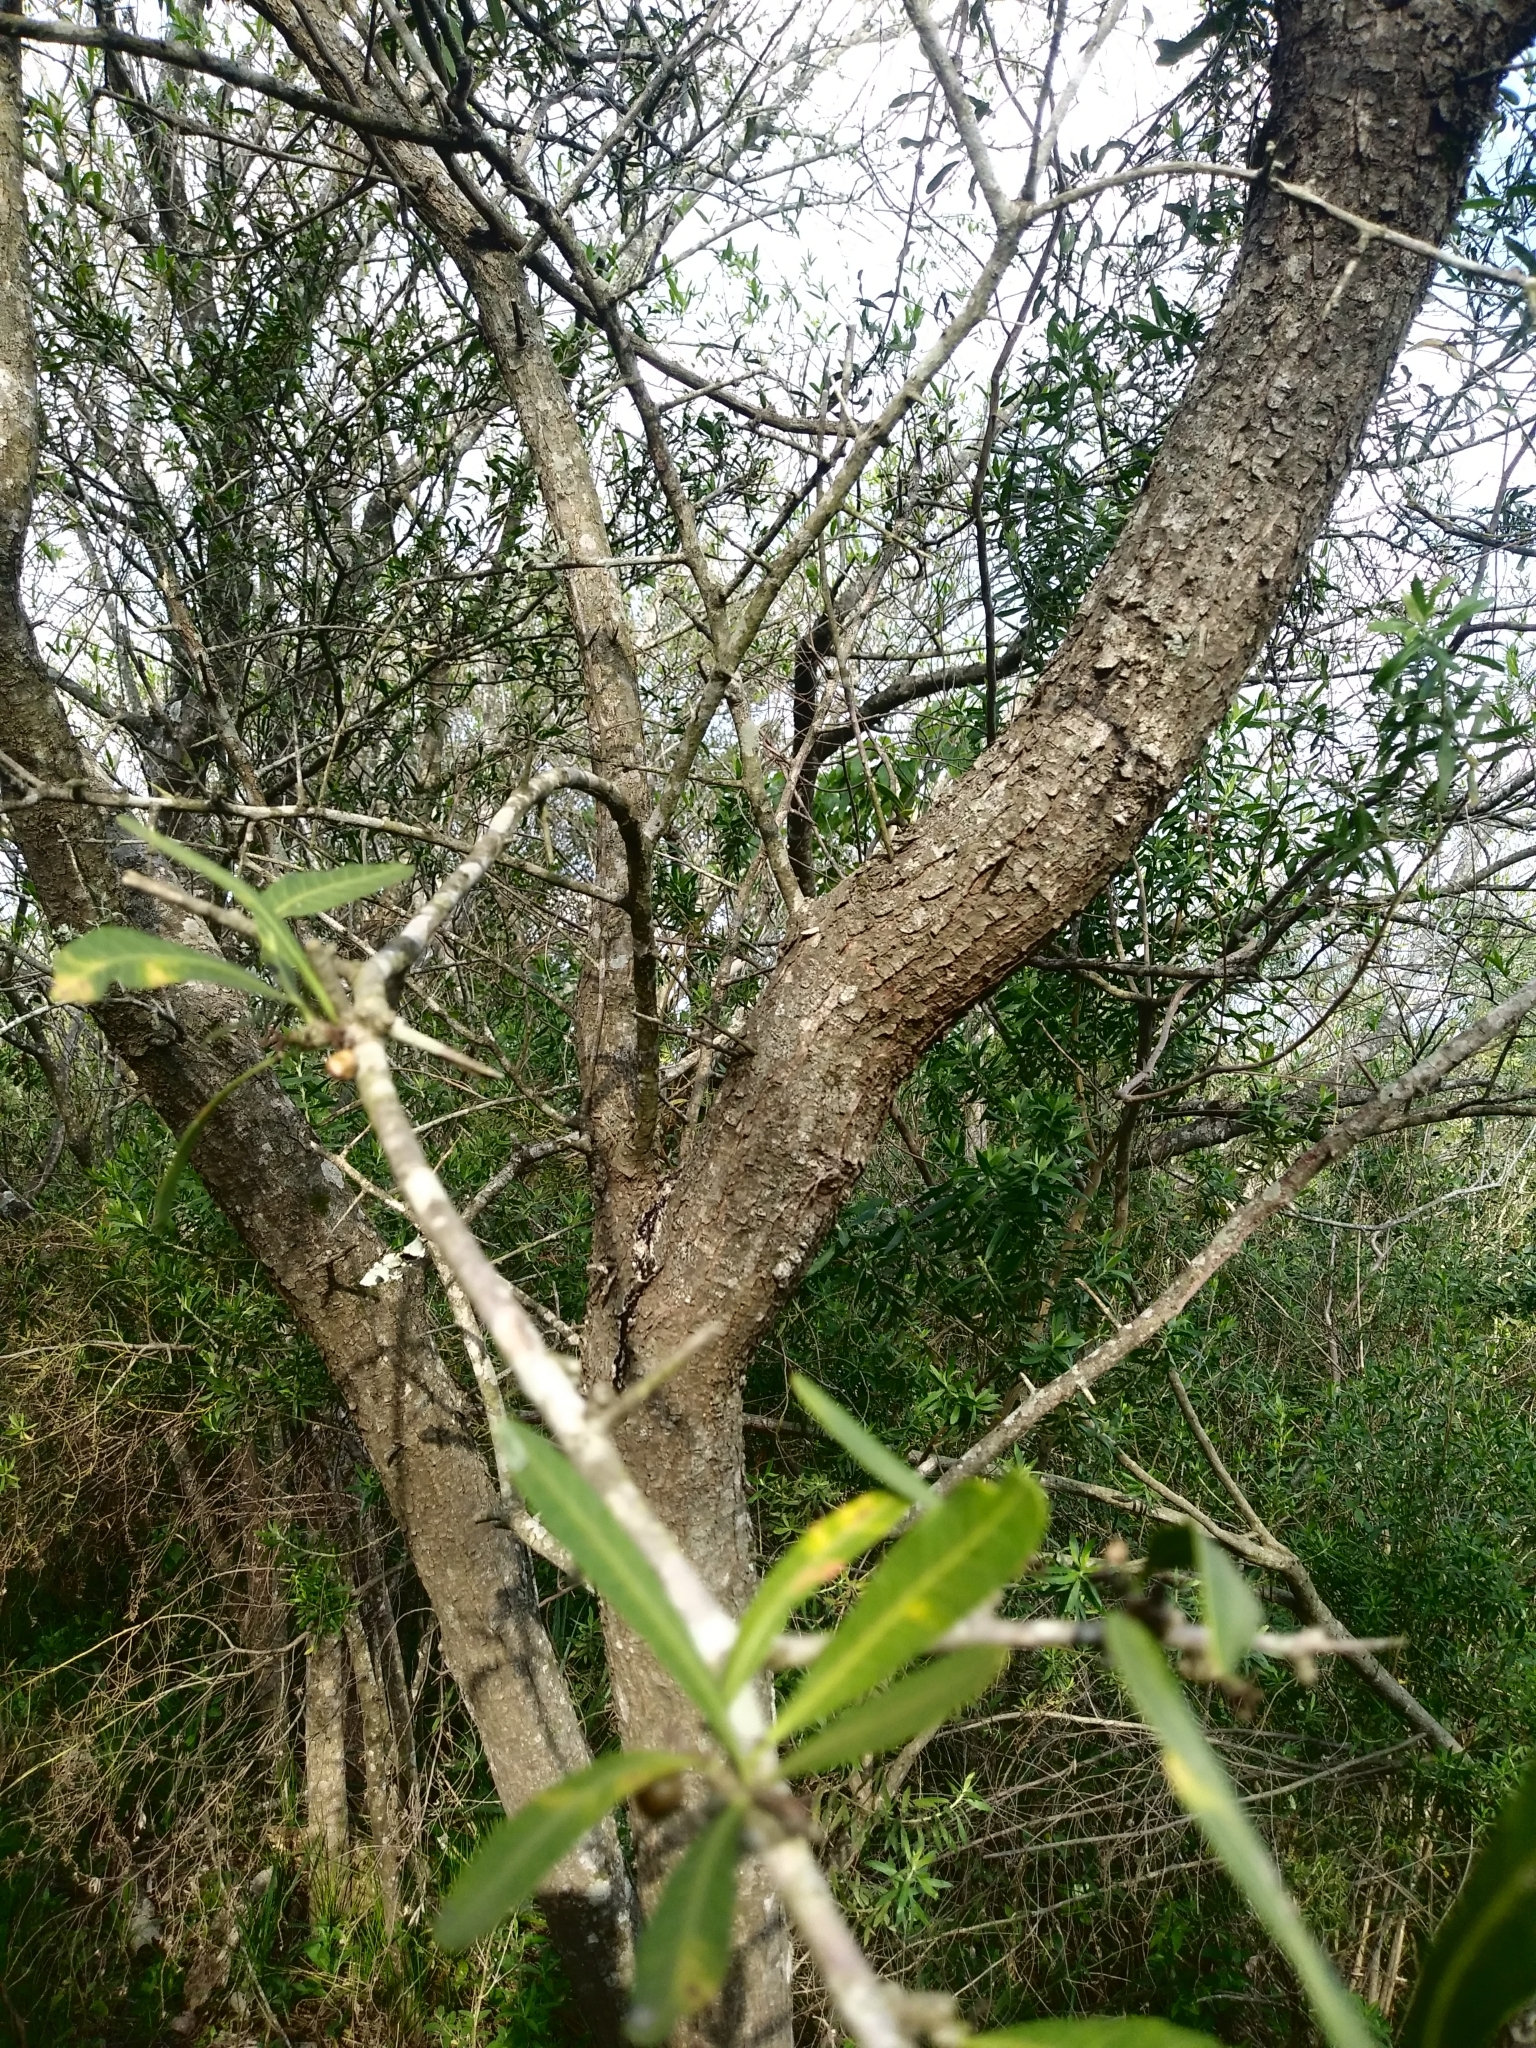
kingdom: Plantae
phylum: Tracheophyta
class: Magnoliopsida
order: Sapindales
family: Anacardiaceae
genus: Schinus
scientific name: Schinus longifolia
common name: Longleaf peppertree
